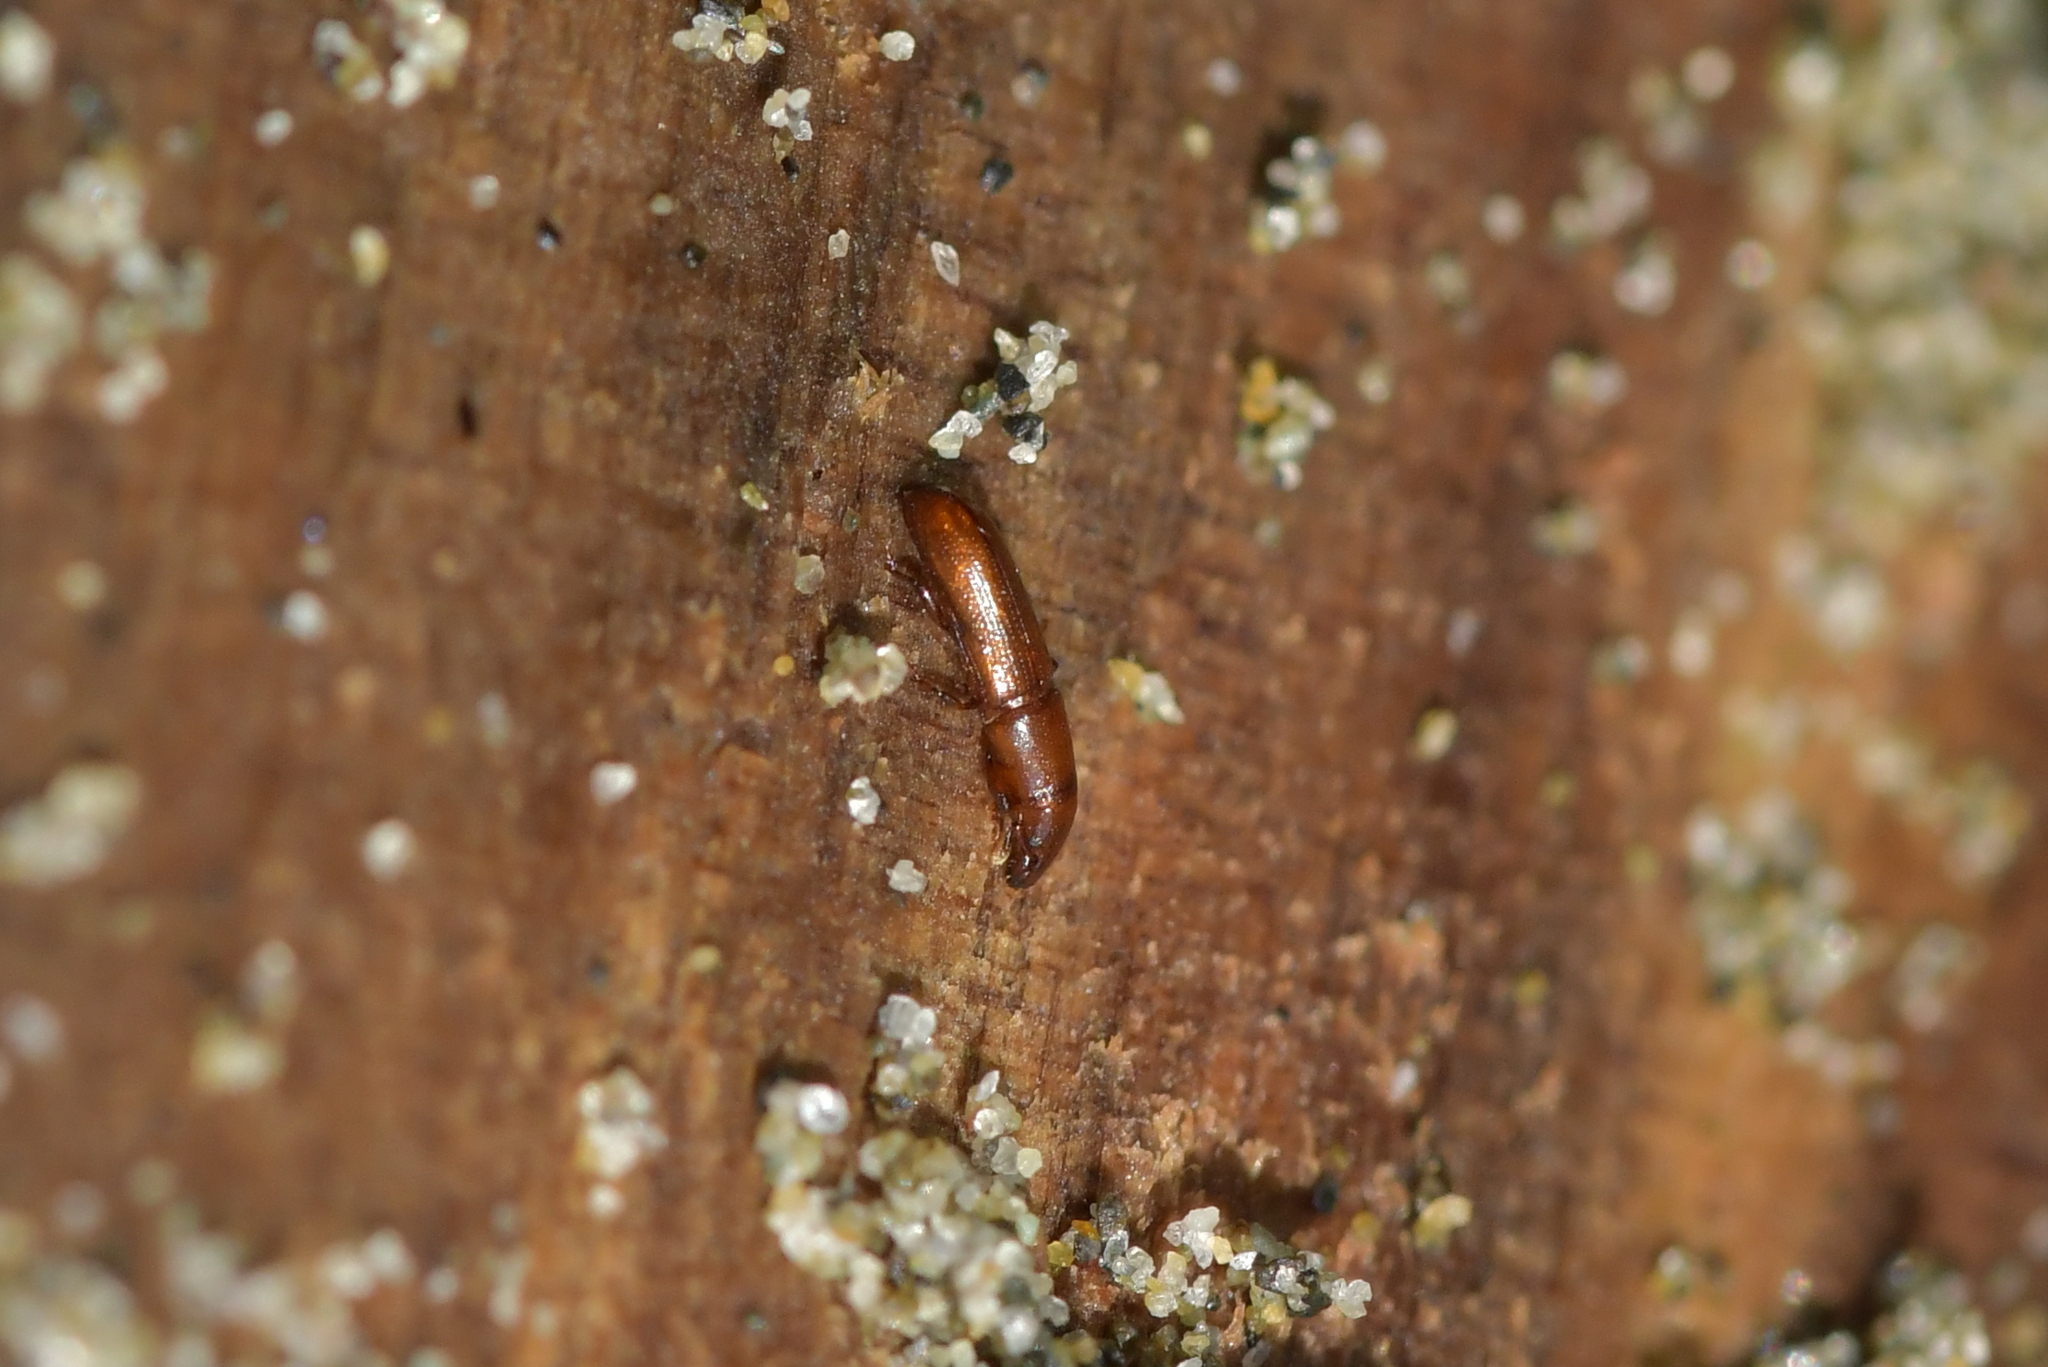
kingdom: Animalia
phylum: Arthropoda
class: Insecta
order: Coleoptera
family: Curculionidae
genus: Eutornus
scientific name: Eutornus littoralis
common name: Driftwood weevil
